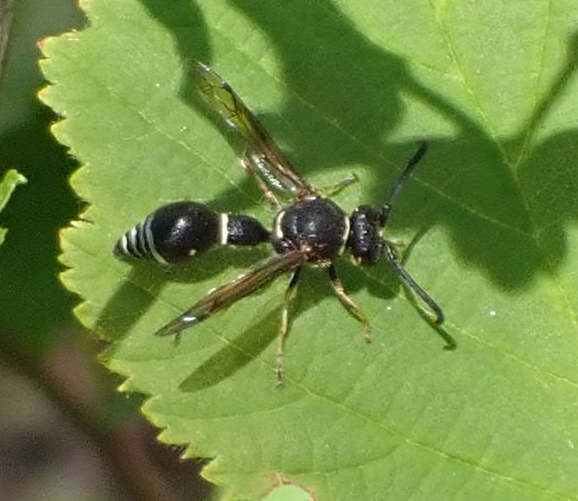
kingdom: Animalia
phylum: Arthropoda
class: Insecta
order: Hymenoptera
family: Vespidae
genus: Eumenes
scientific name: Eumenes
